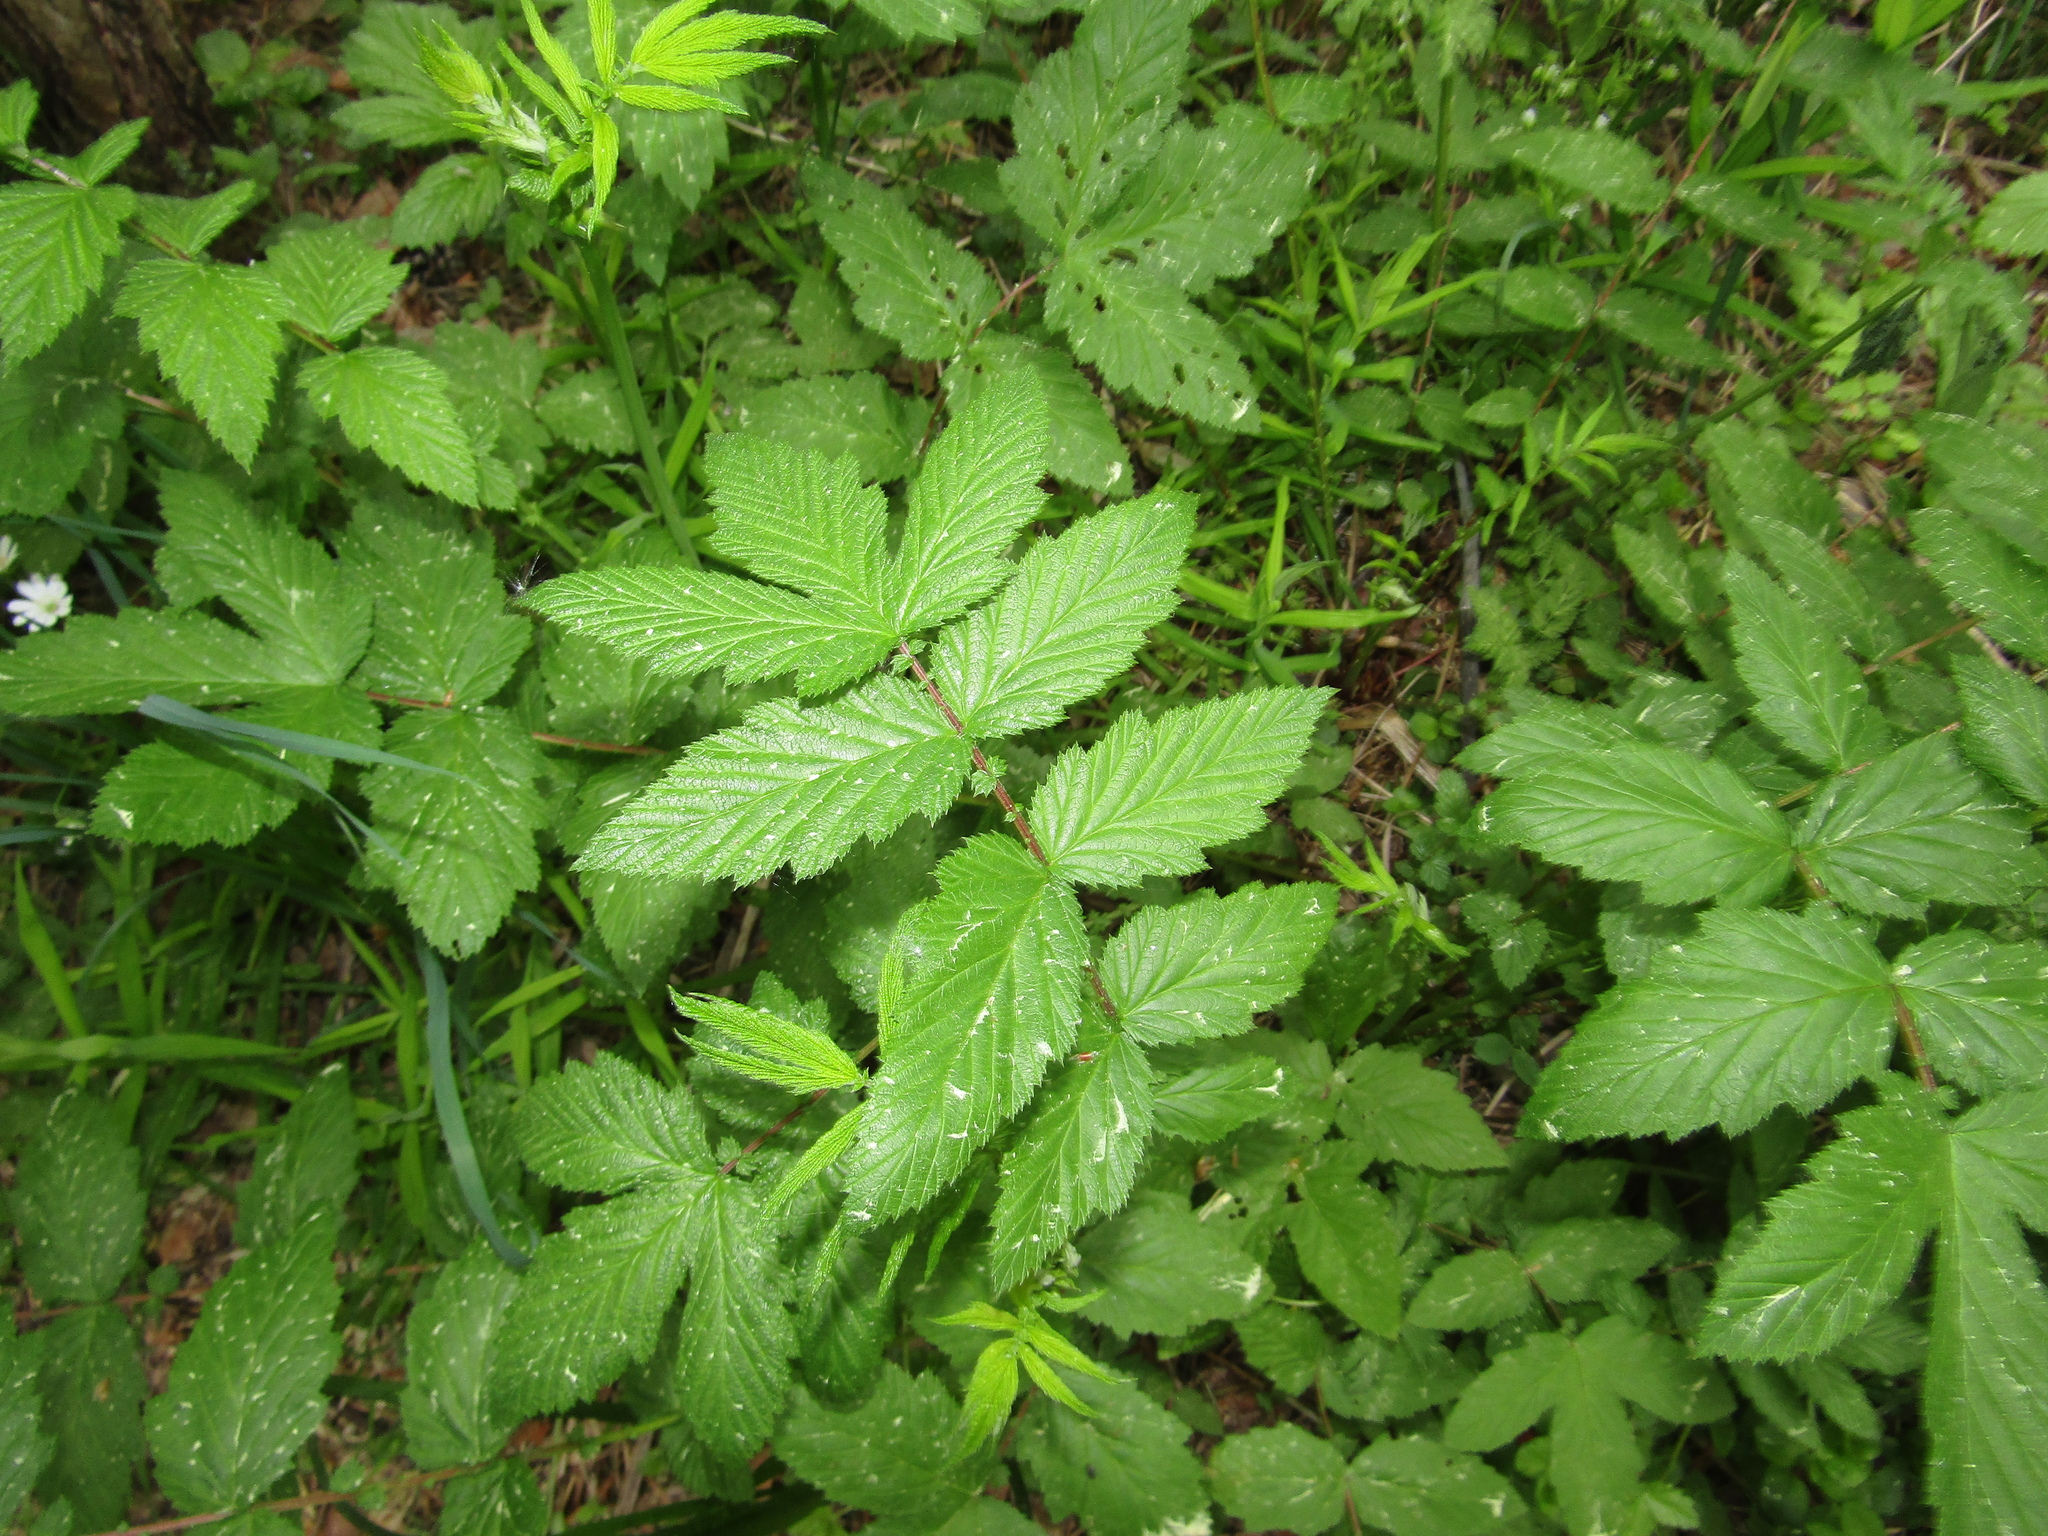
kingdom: Plantae
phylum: Tracheophyta
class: Magnoliopsida
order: Rosales
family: Rosaceae
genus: Filipendula
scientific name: Filipendula ulmaria
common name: Meadowsweet
